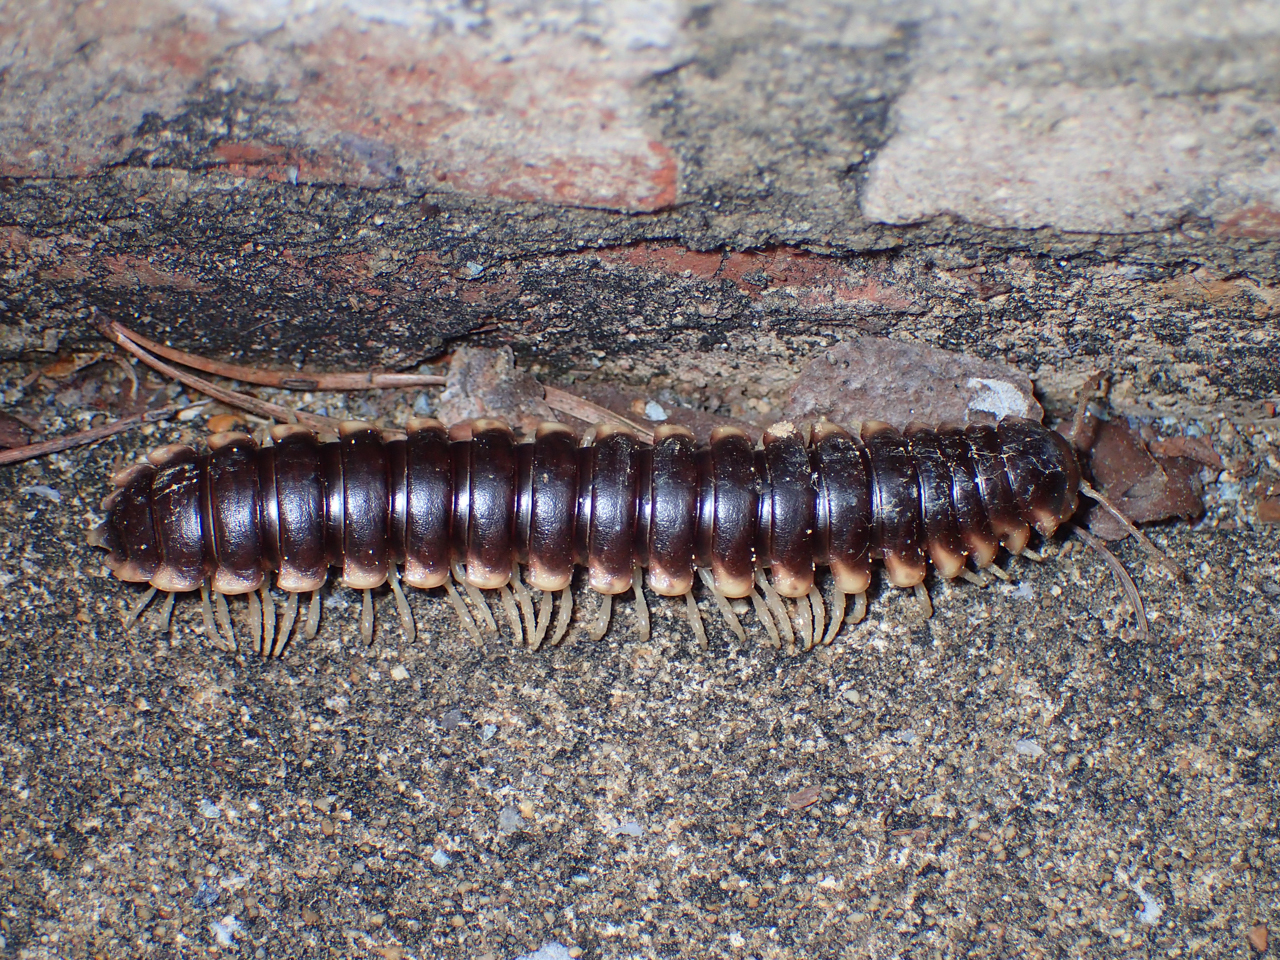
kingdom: Animalia
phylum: Arthropoda
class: Diplopoda
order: Polydesmida
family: Xystodesmidae
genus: Pachydesmus
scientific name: Pachydesmus hubrichti
